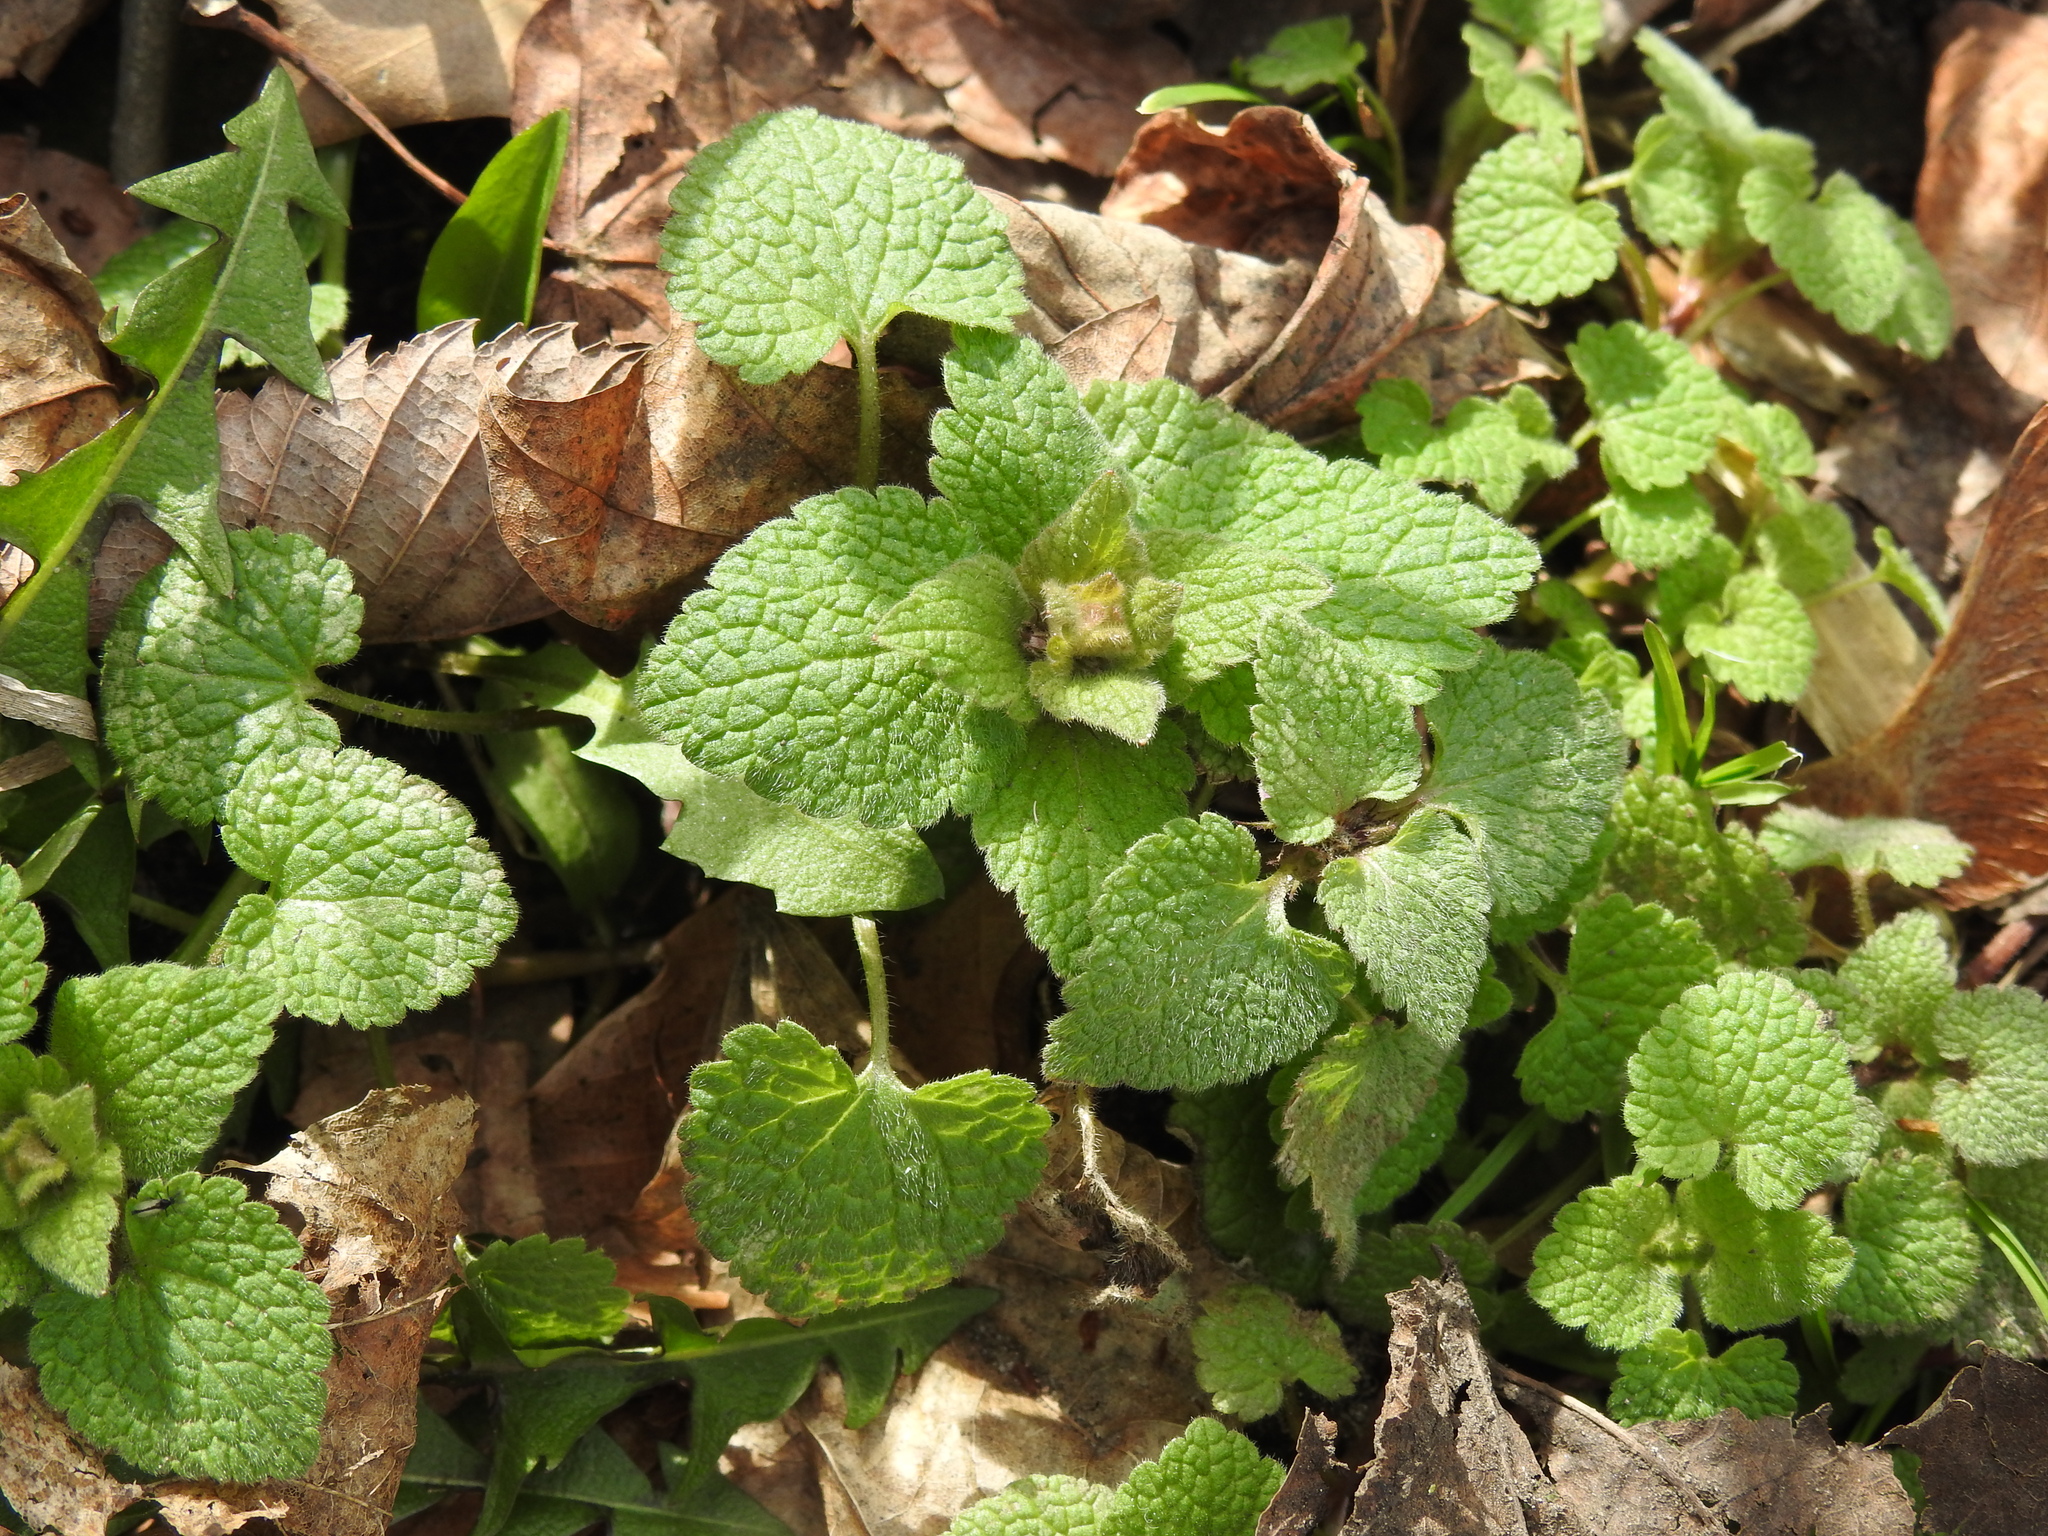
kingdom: Plantae
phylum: Tracheophyta
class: Magnoliopsida
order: Lamiales
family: Lamiaceae
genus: Lamium
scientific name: Lamium purpureum
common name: Red dead-nettle
